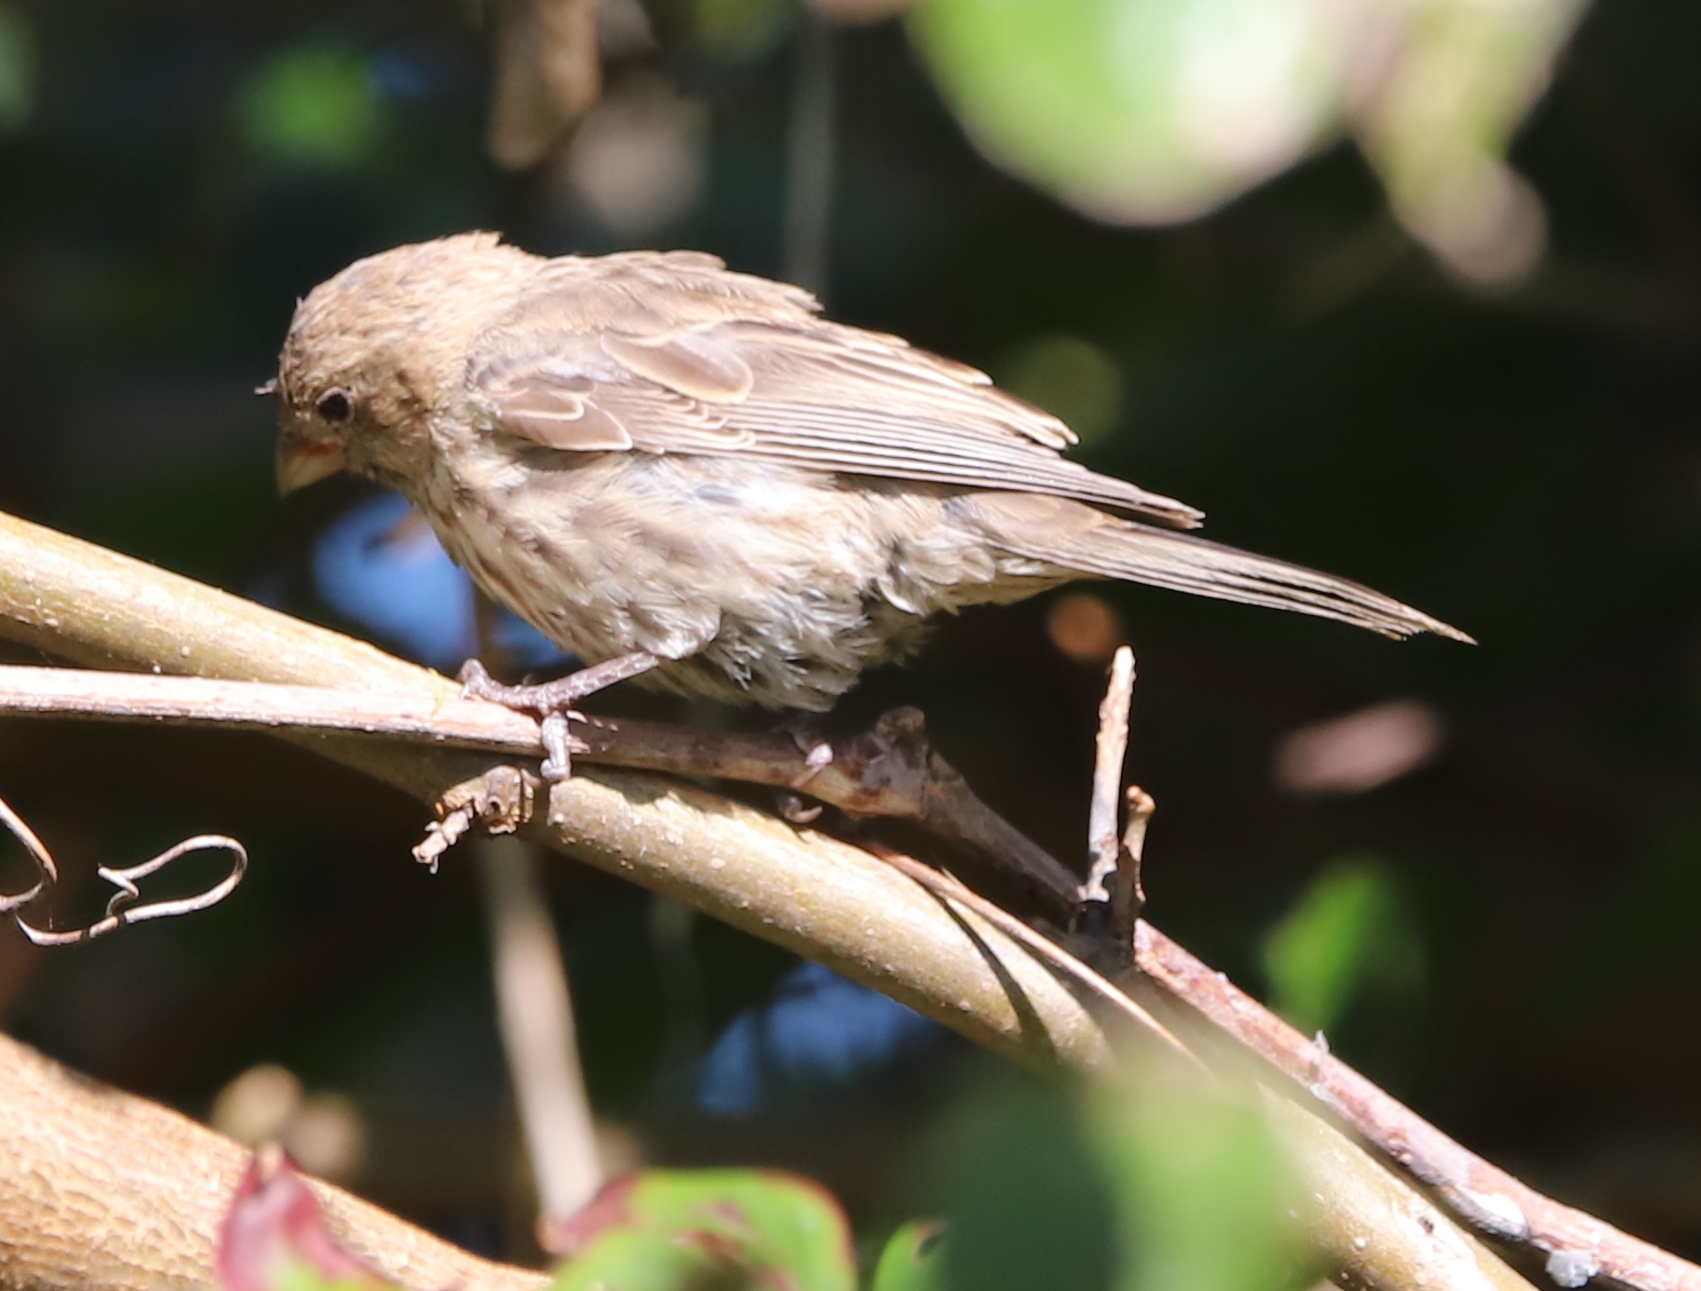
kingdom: Animalia
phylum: Chordata
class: Aves
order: Passeriformes
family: Fringillidae
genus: Haemorhous
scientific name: Haemorhous mexicanus
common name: House finch
